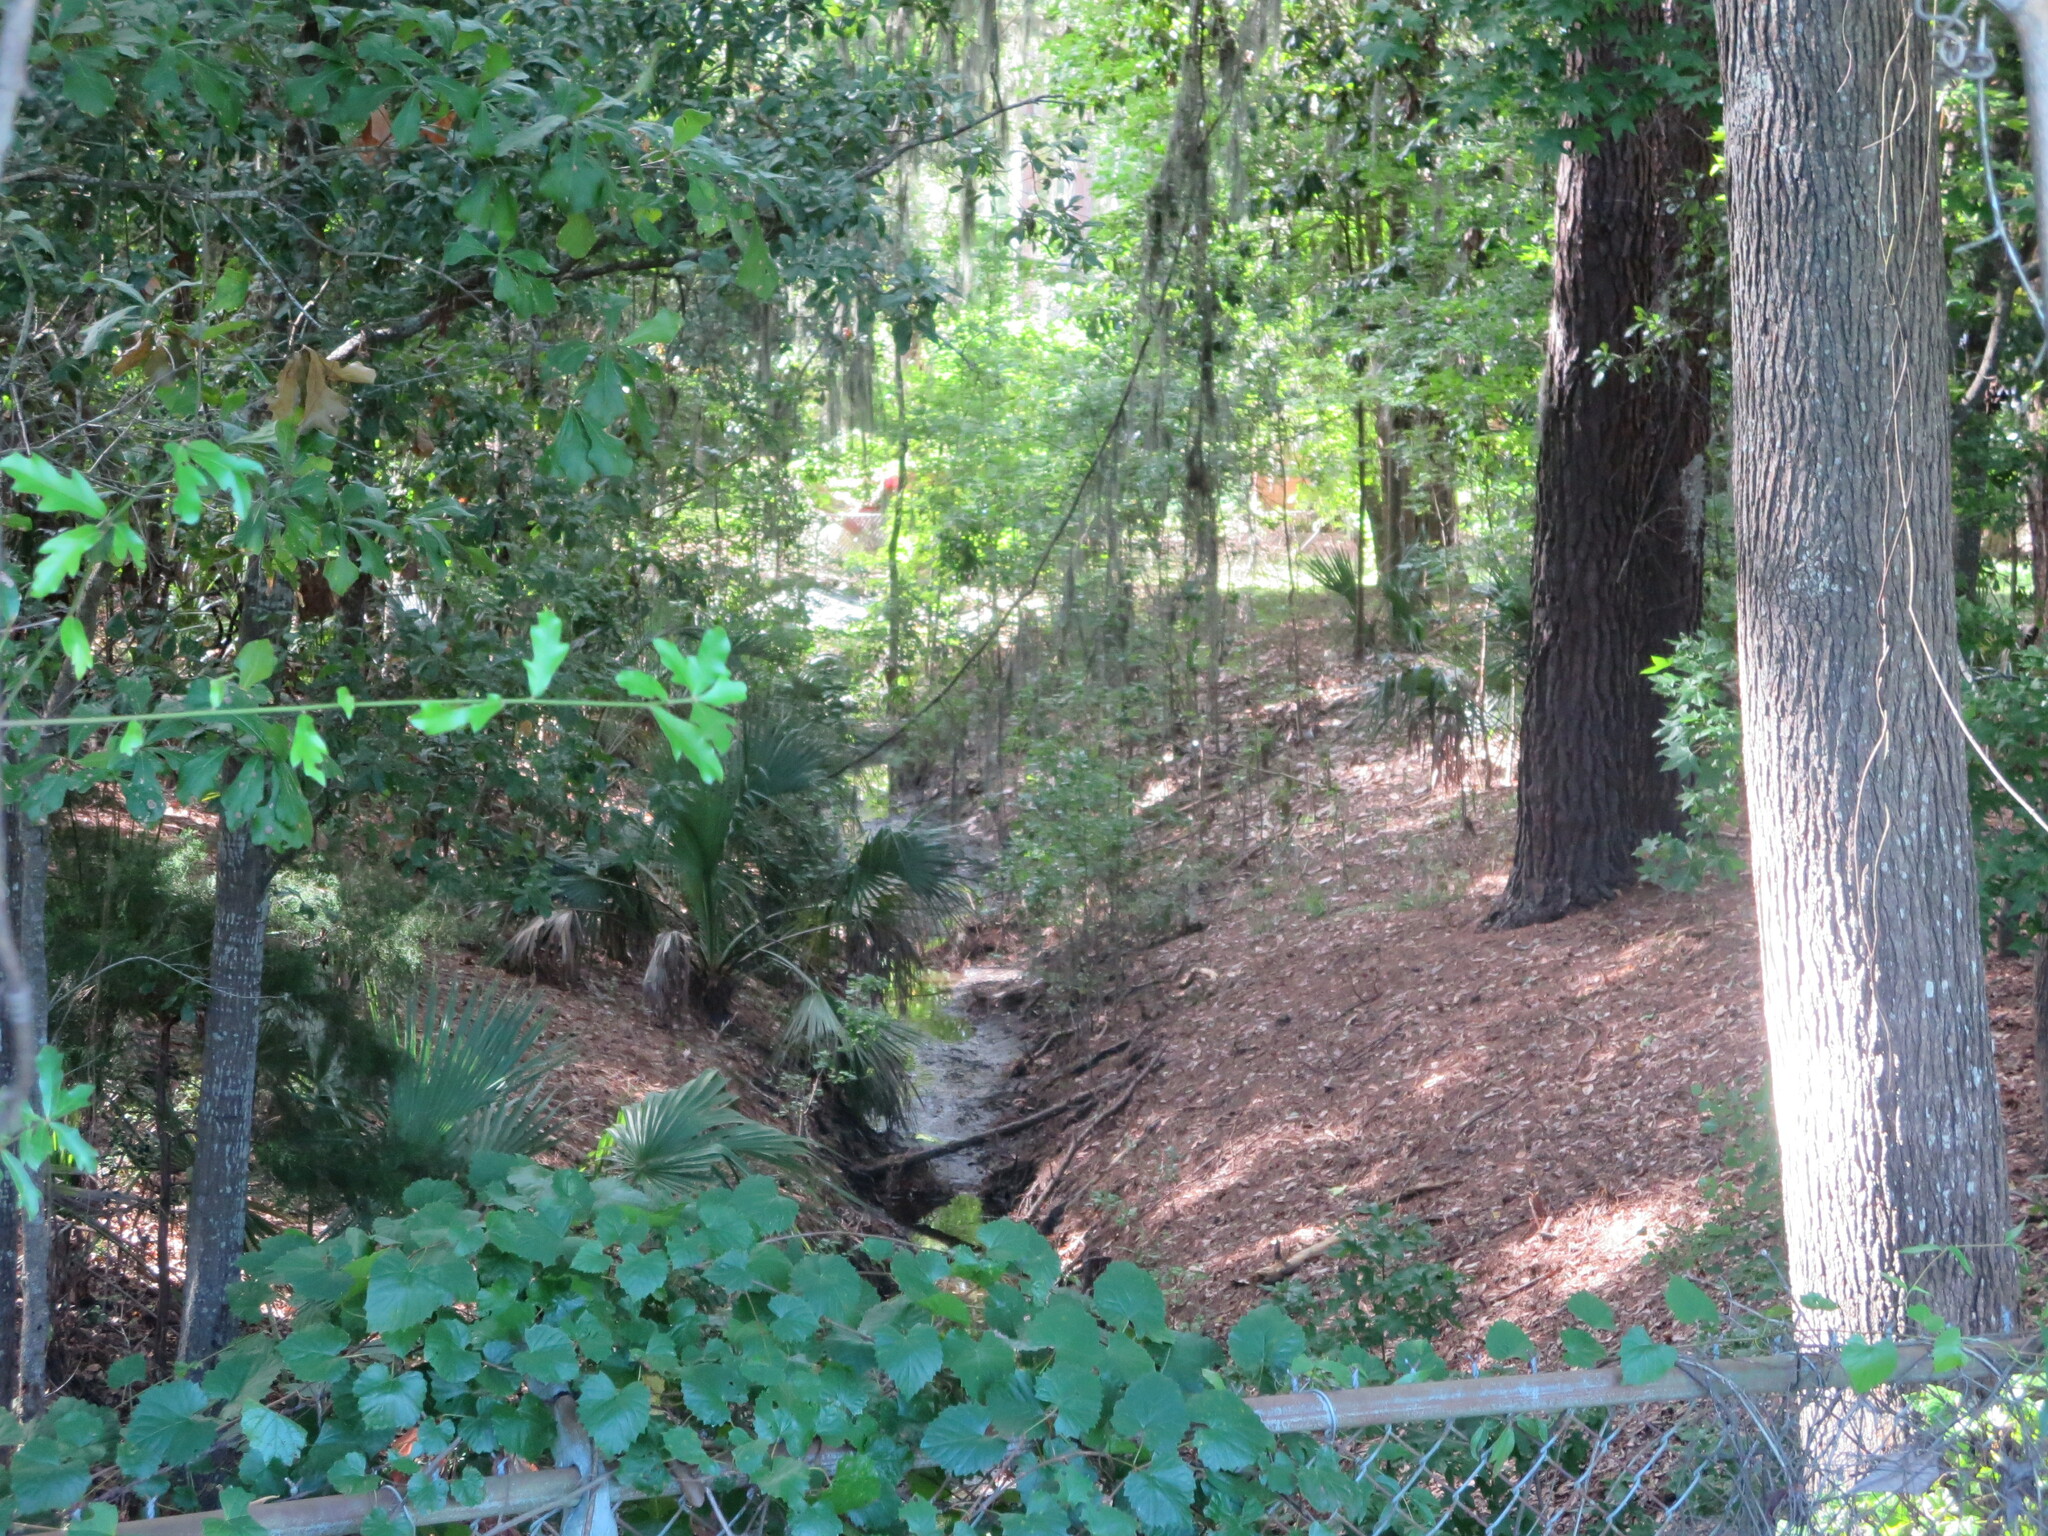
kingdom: Plantae
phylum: Tracheophyta
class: Magnoliopsida
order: Vitales
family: Vitaceae
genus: Vitis
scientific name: Vitis rotundifolia
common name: Muscadine grape
